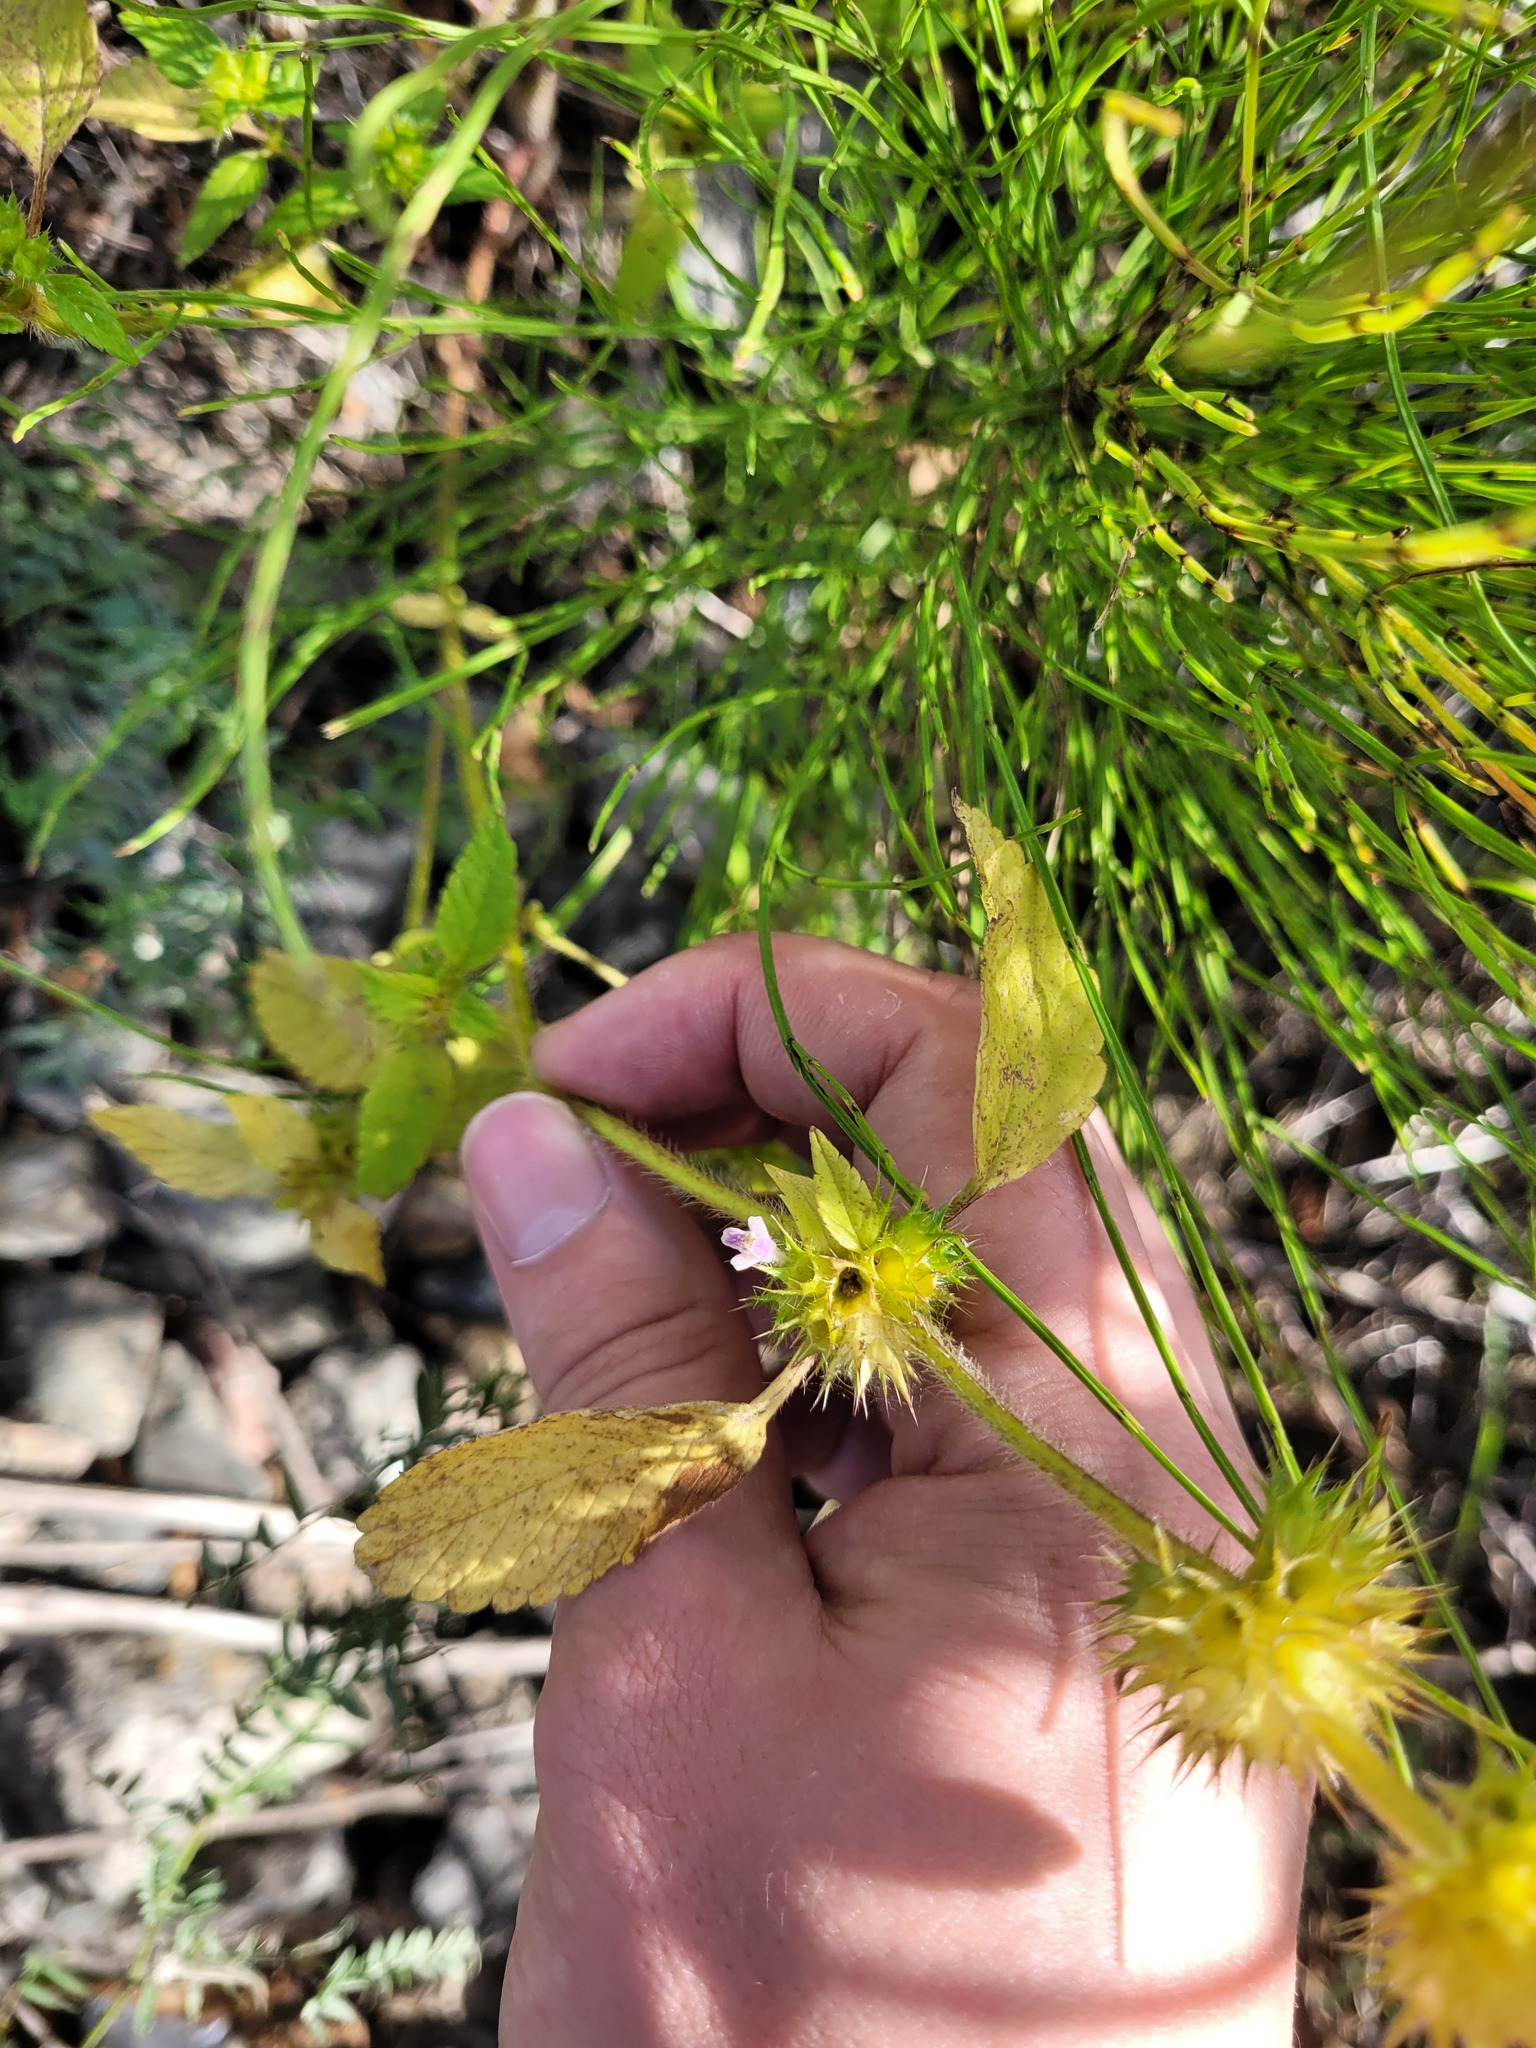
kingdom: Plantae
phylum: Tracheophyta
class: Magnoliopsida
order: Lamiales
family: Lamiaceae
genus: Galeopsis
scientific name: Galeopsis bifida
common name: Bifid hemp-nettle
